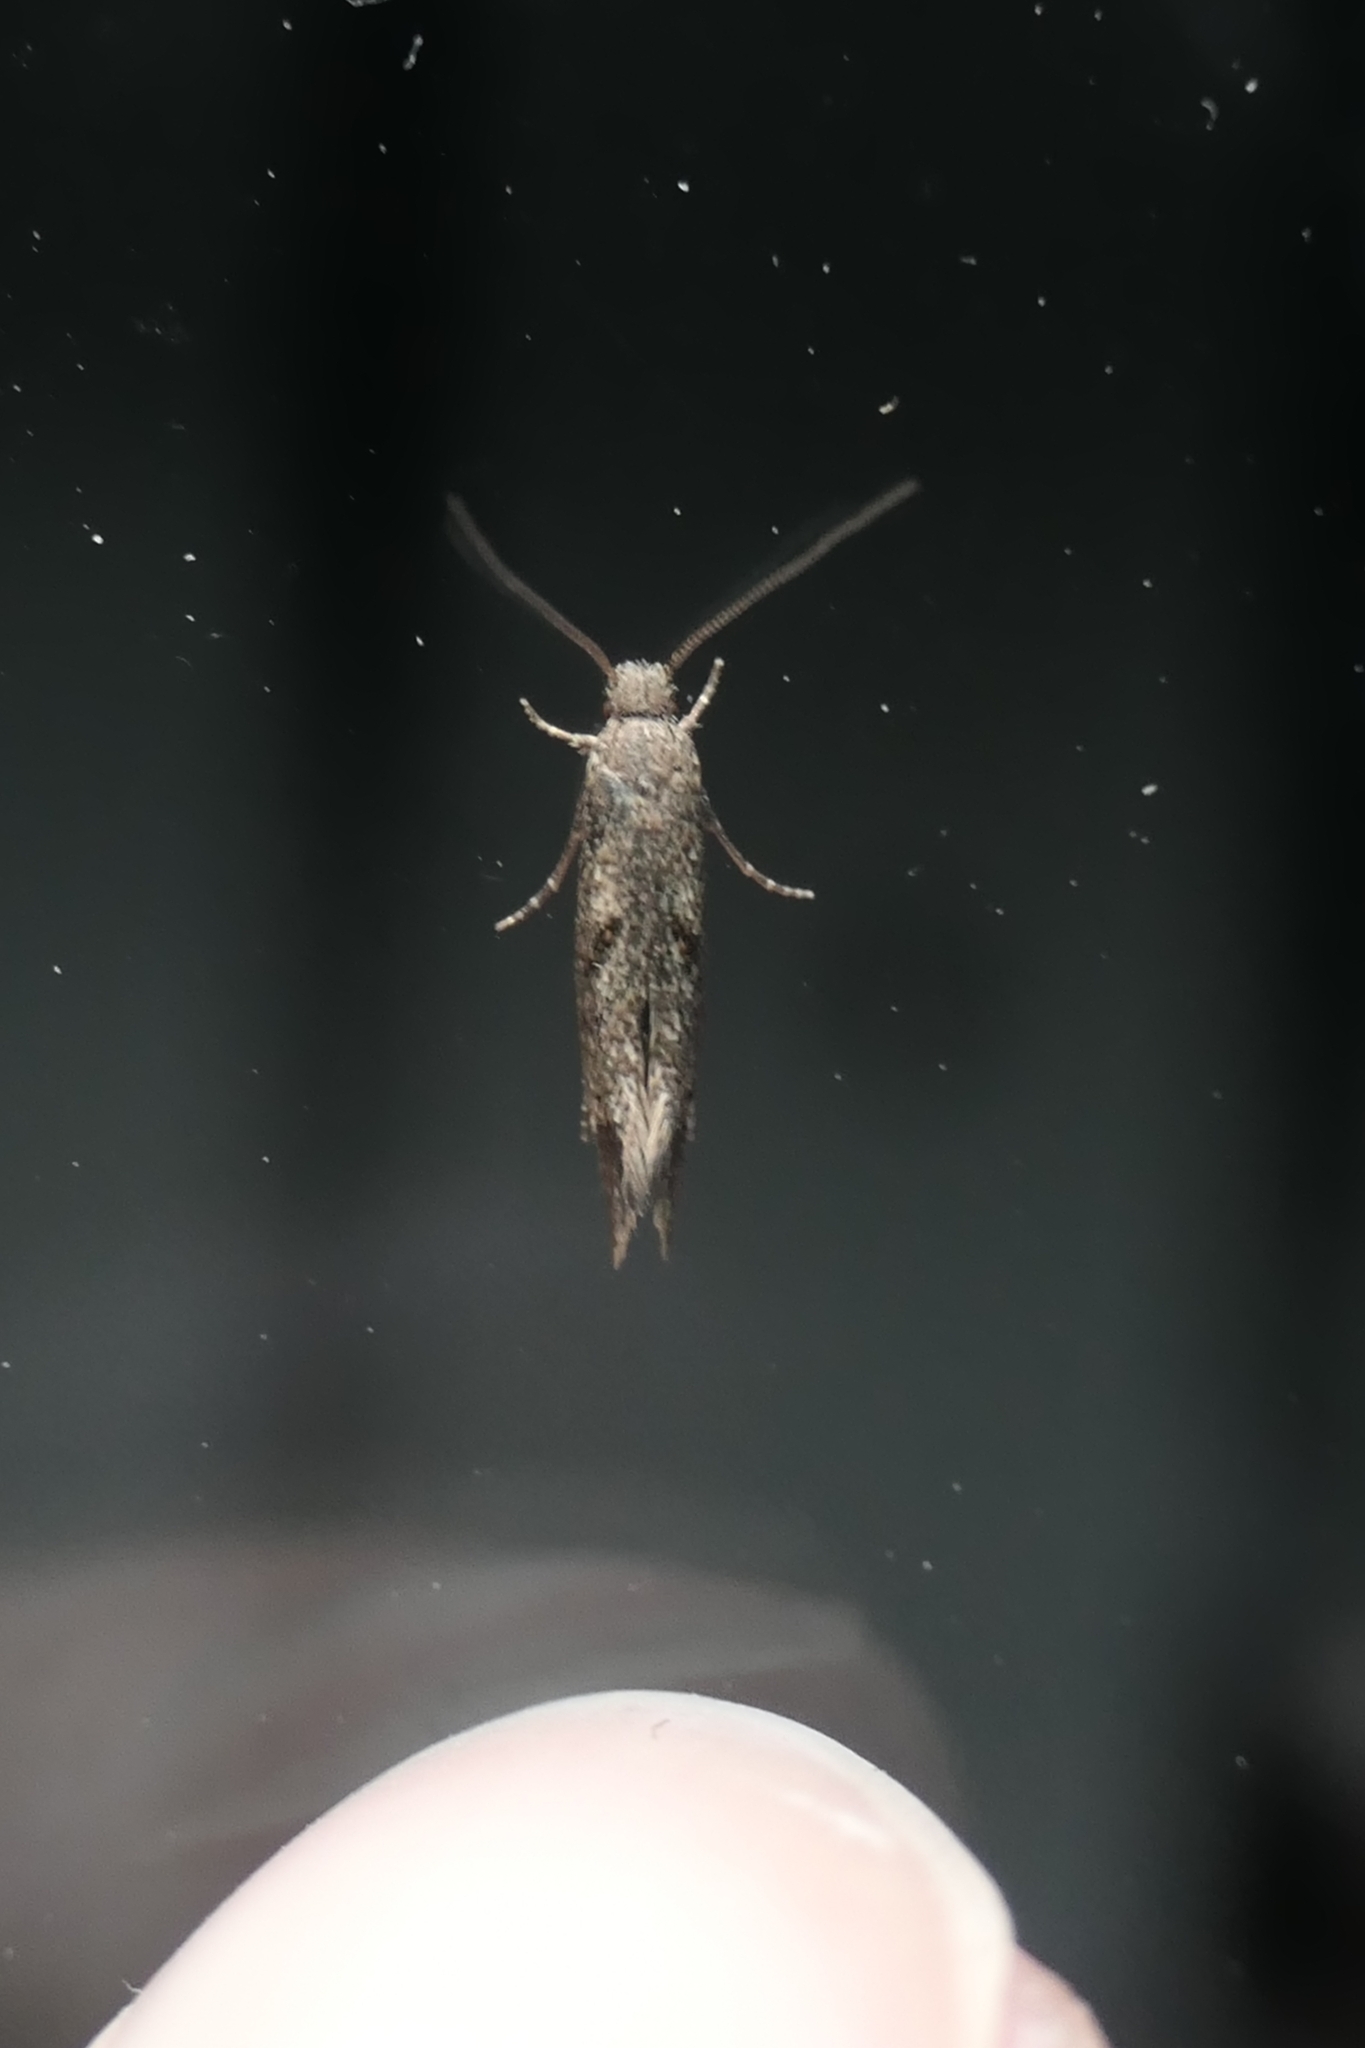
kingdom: Animalia
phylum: Arthropoda
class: Insecta
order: Lepidoptera
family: Tineidae
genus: Tinea
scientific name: Tinea mochlota
